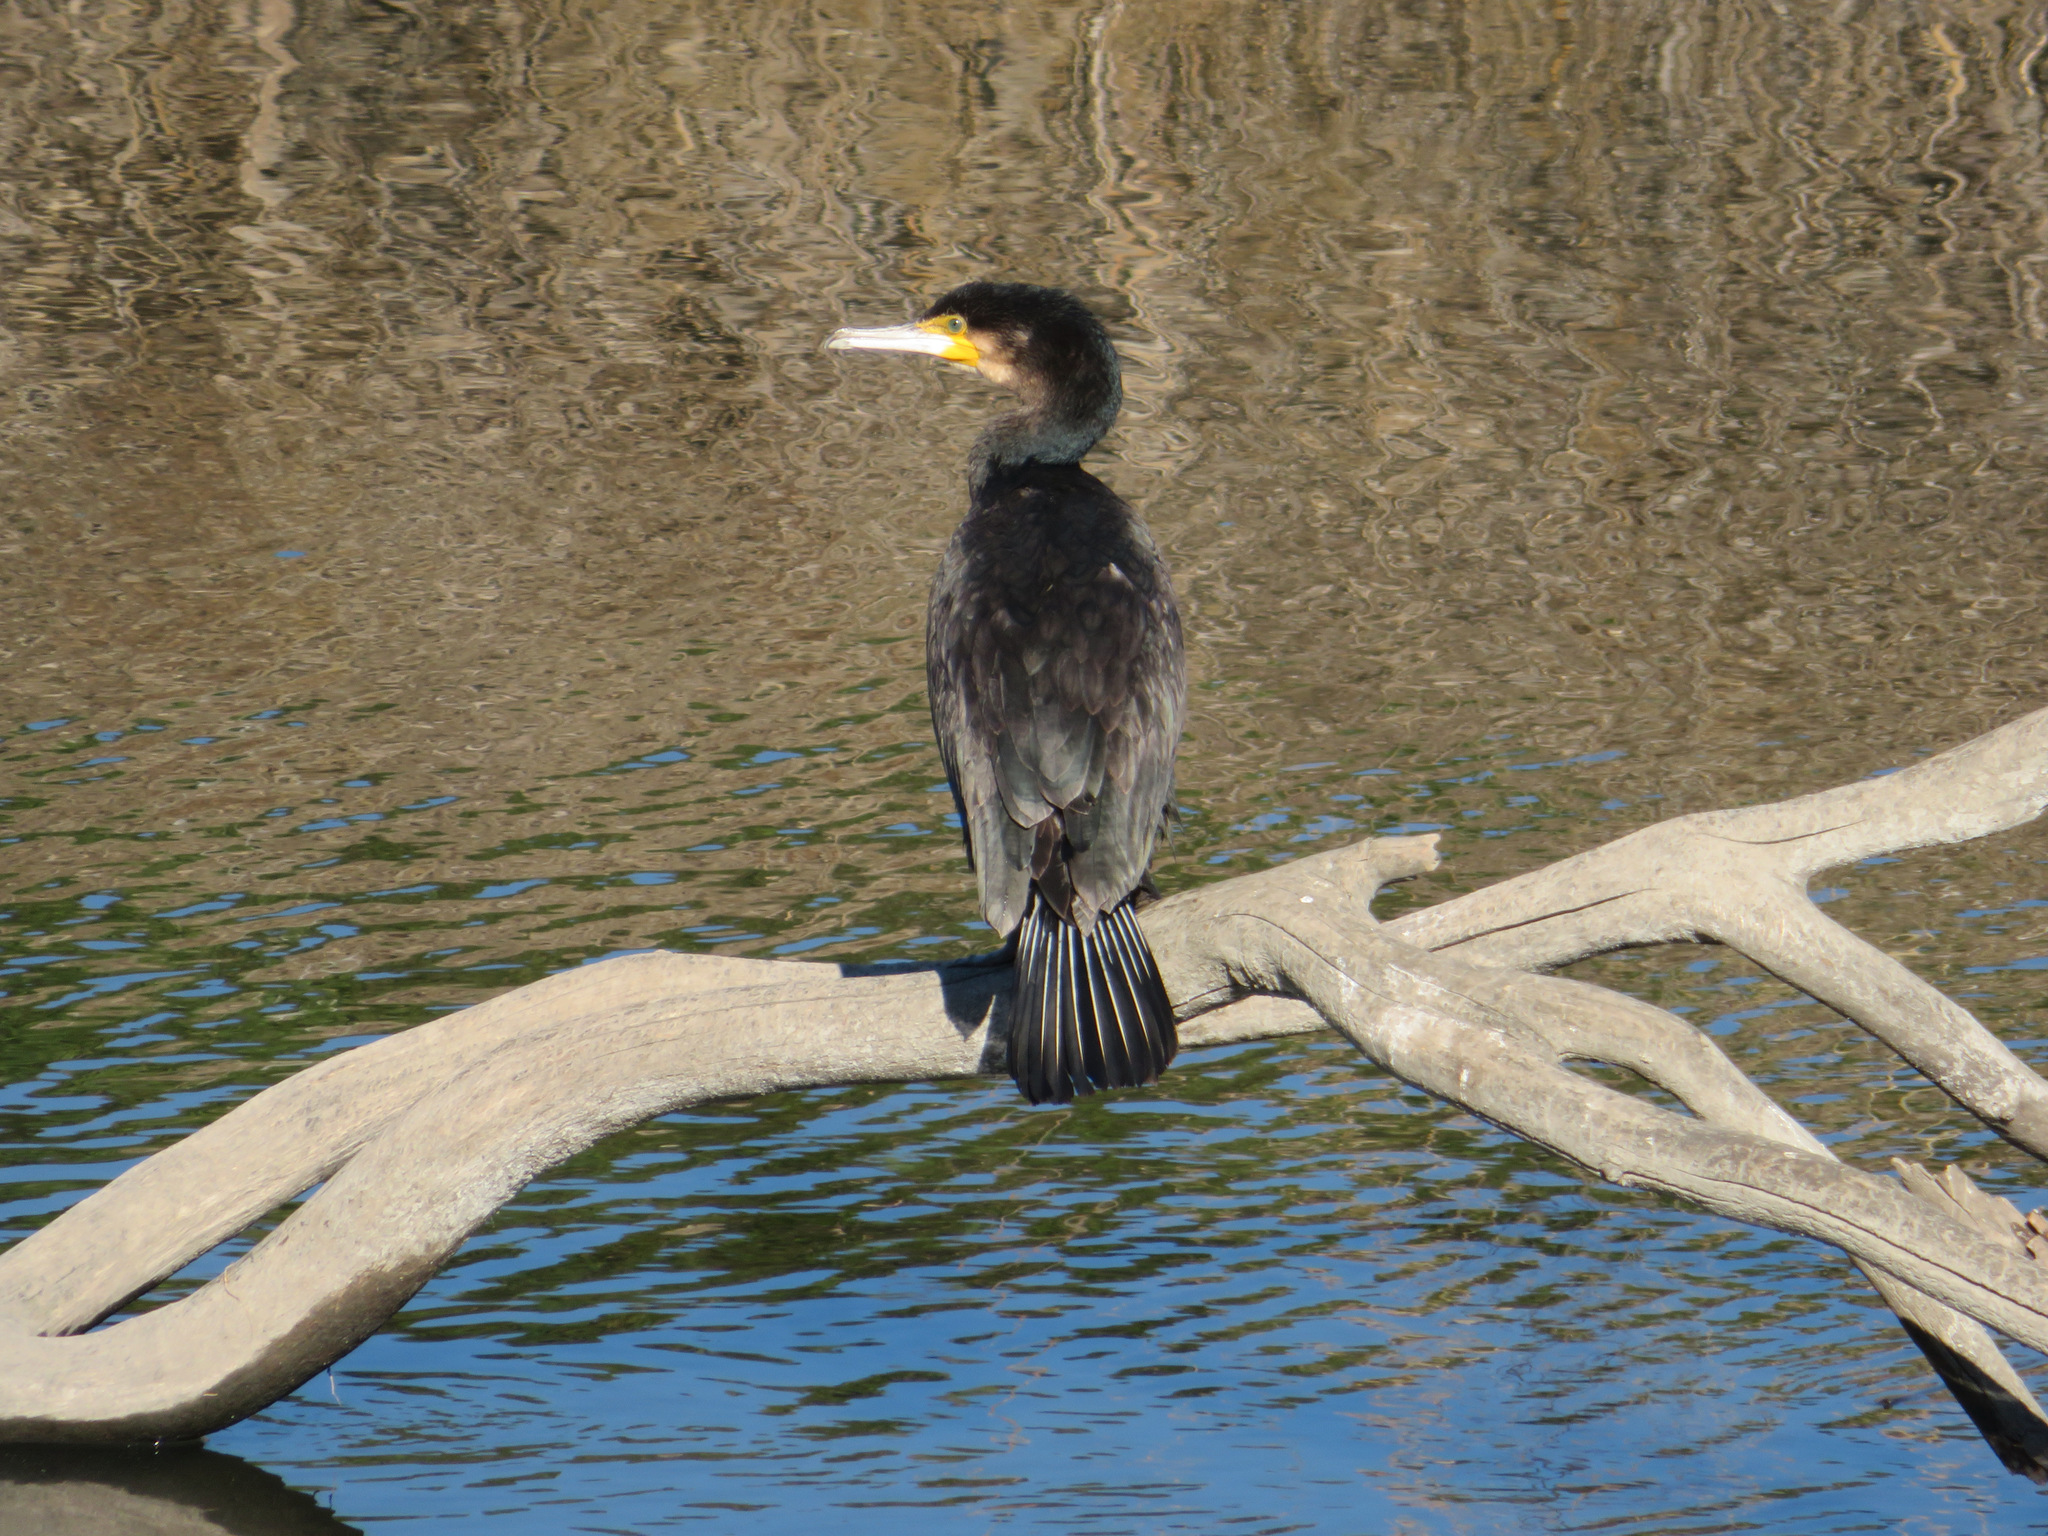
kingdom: Animalia
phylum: Chordata
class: Aves
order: Suliformes
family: Phalacrocoracidae
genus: Phalacrocorax
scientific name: Phalacrocorax carbo
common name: Great cormorant
